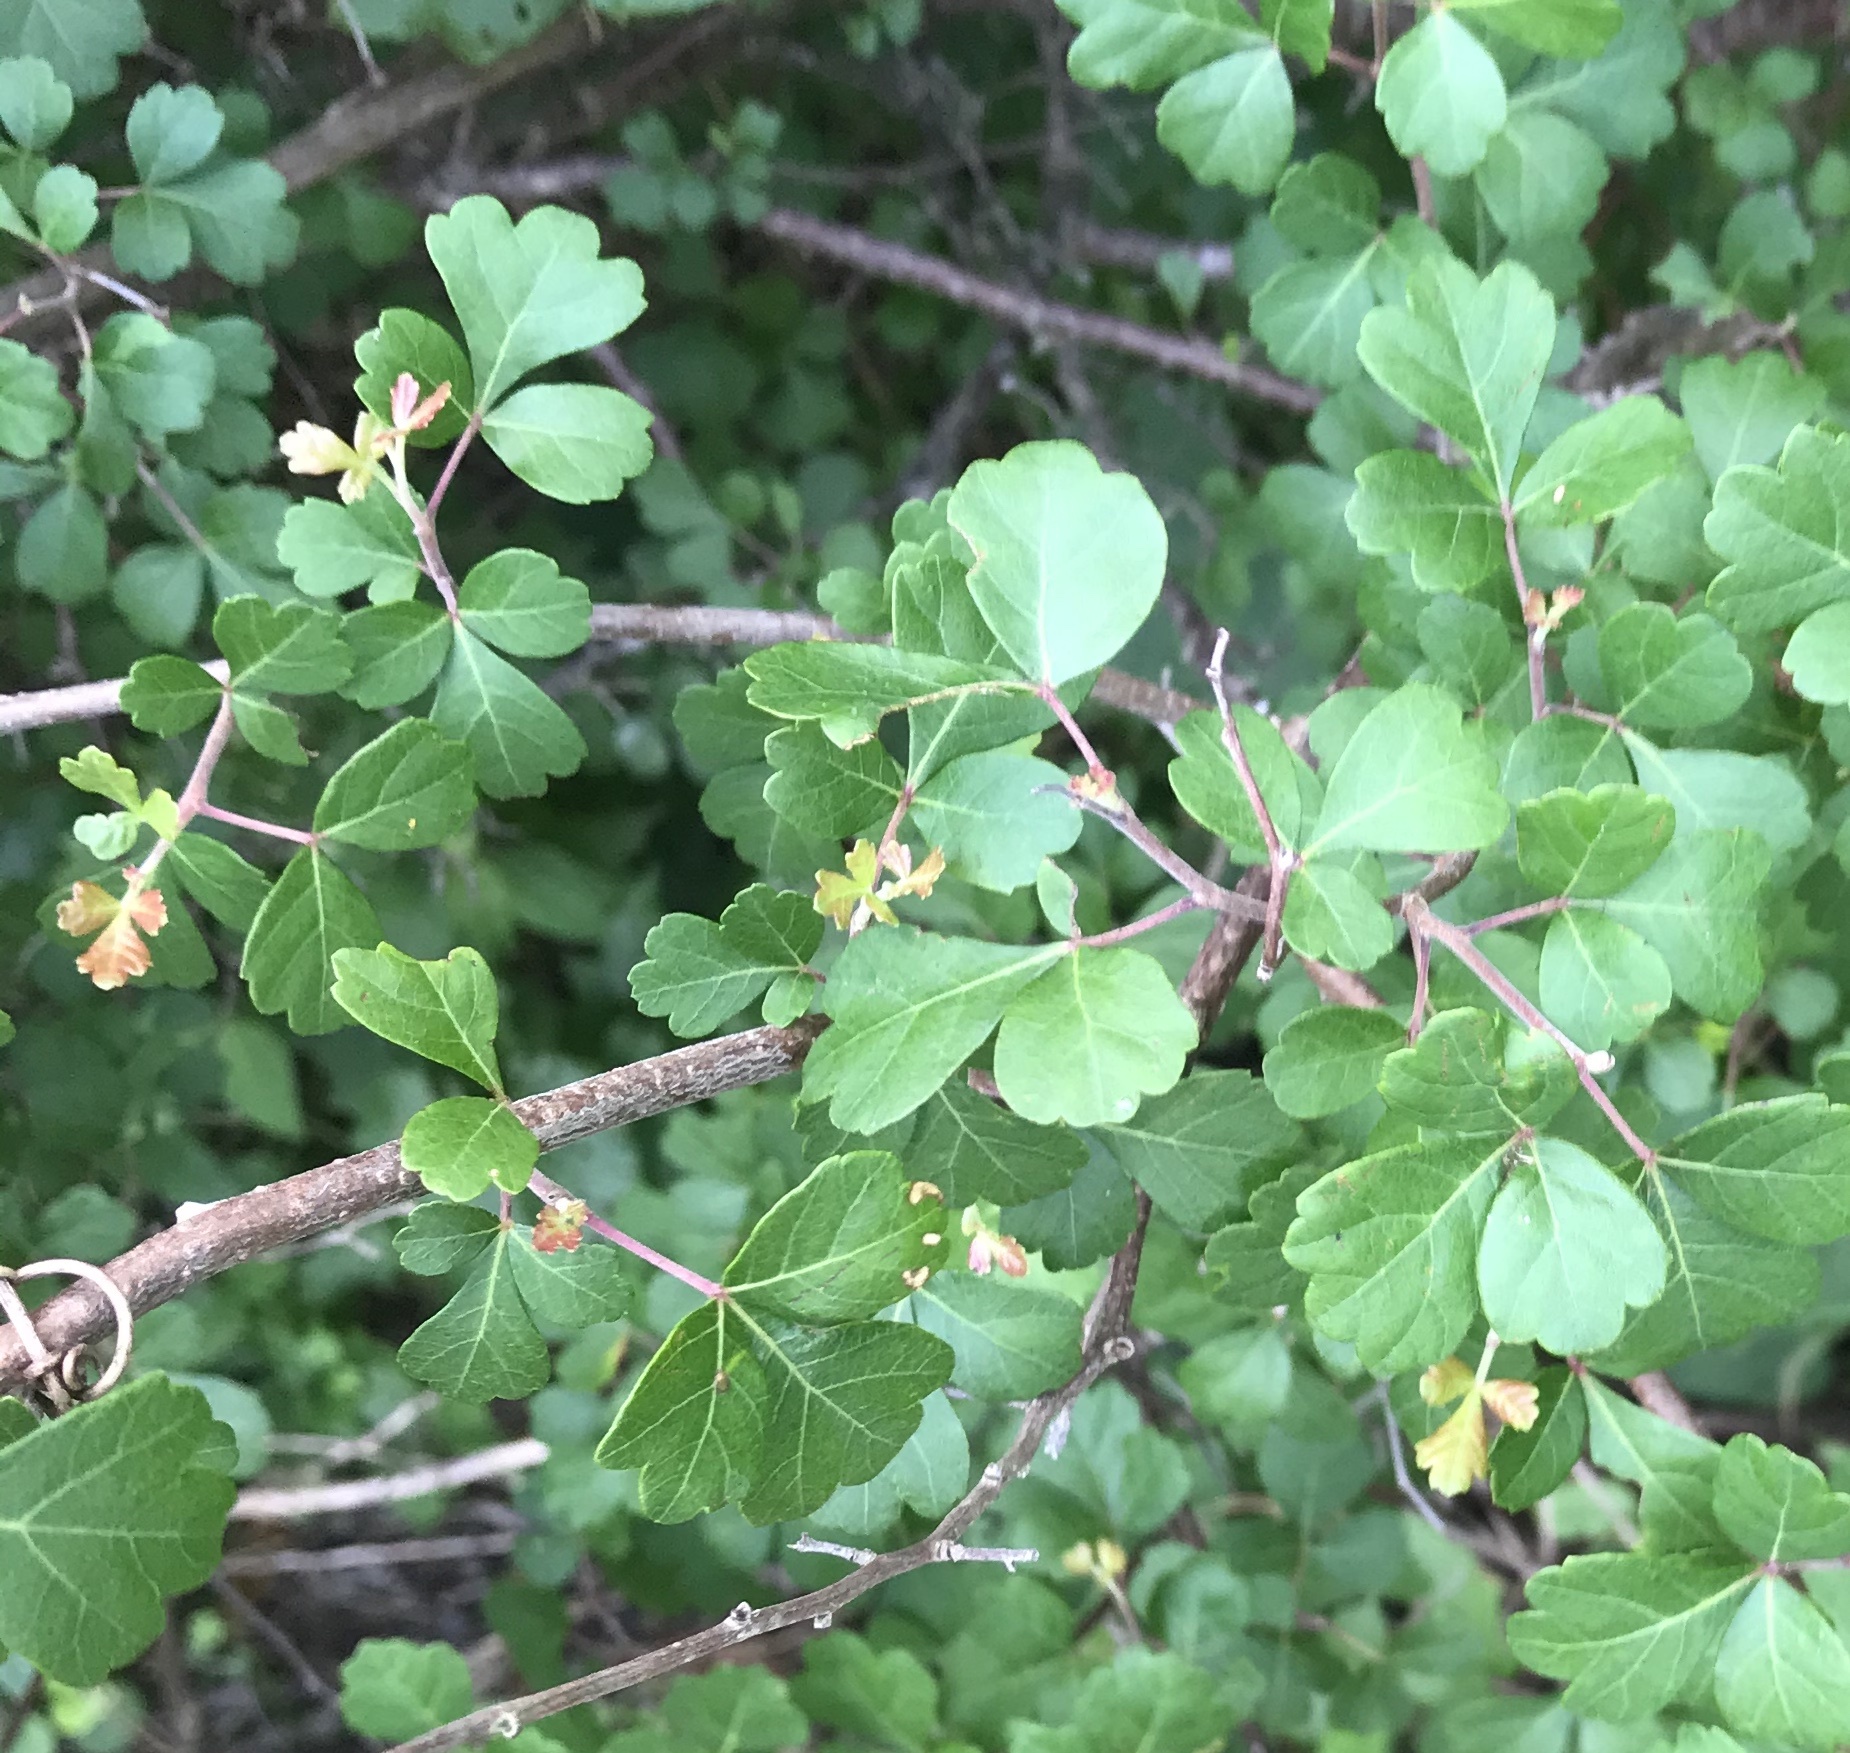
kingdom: Plantae
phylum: Tracheophyta
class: Magnoliopsida
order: Sapindales
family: Anacardiaceae
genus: Rhus
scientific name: Rhus aromatica
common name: Aromatic sumac
